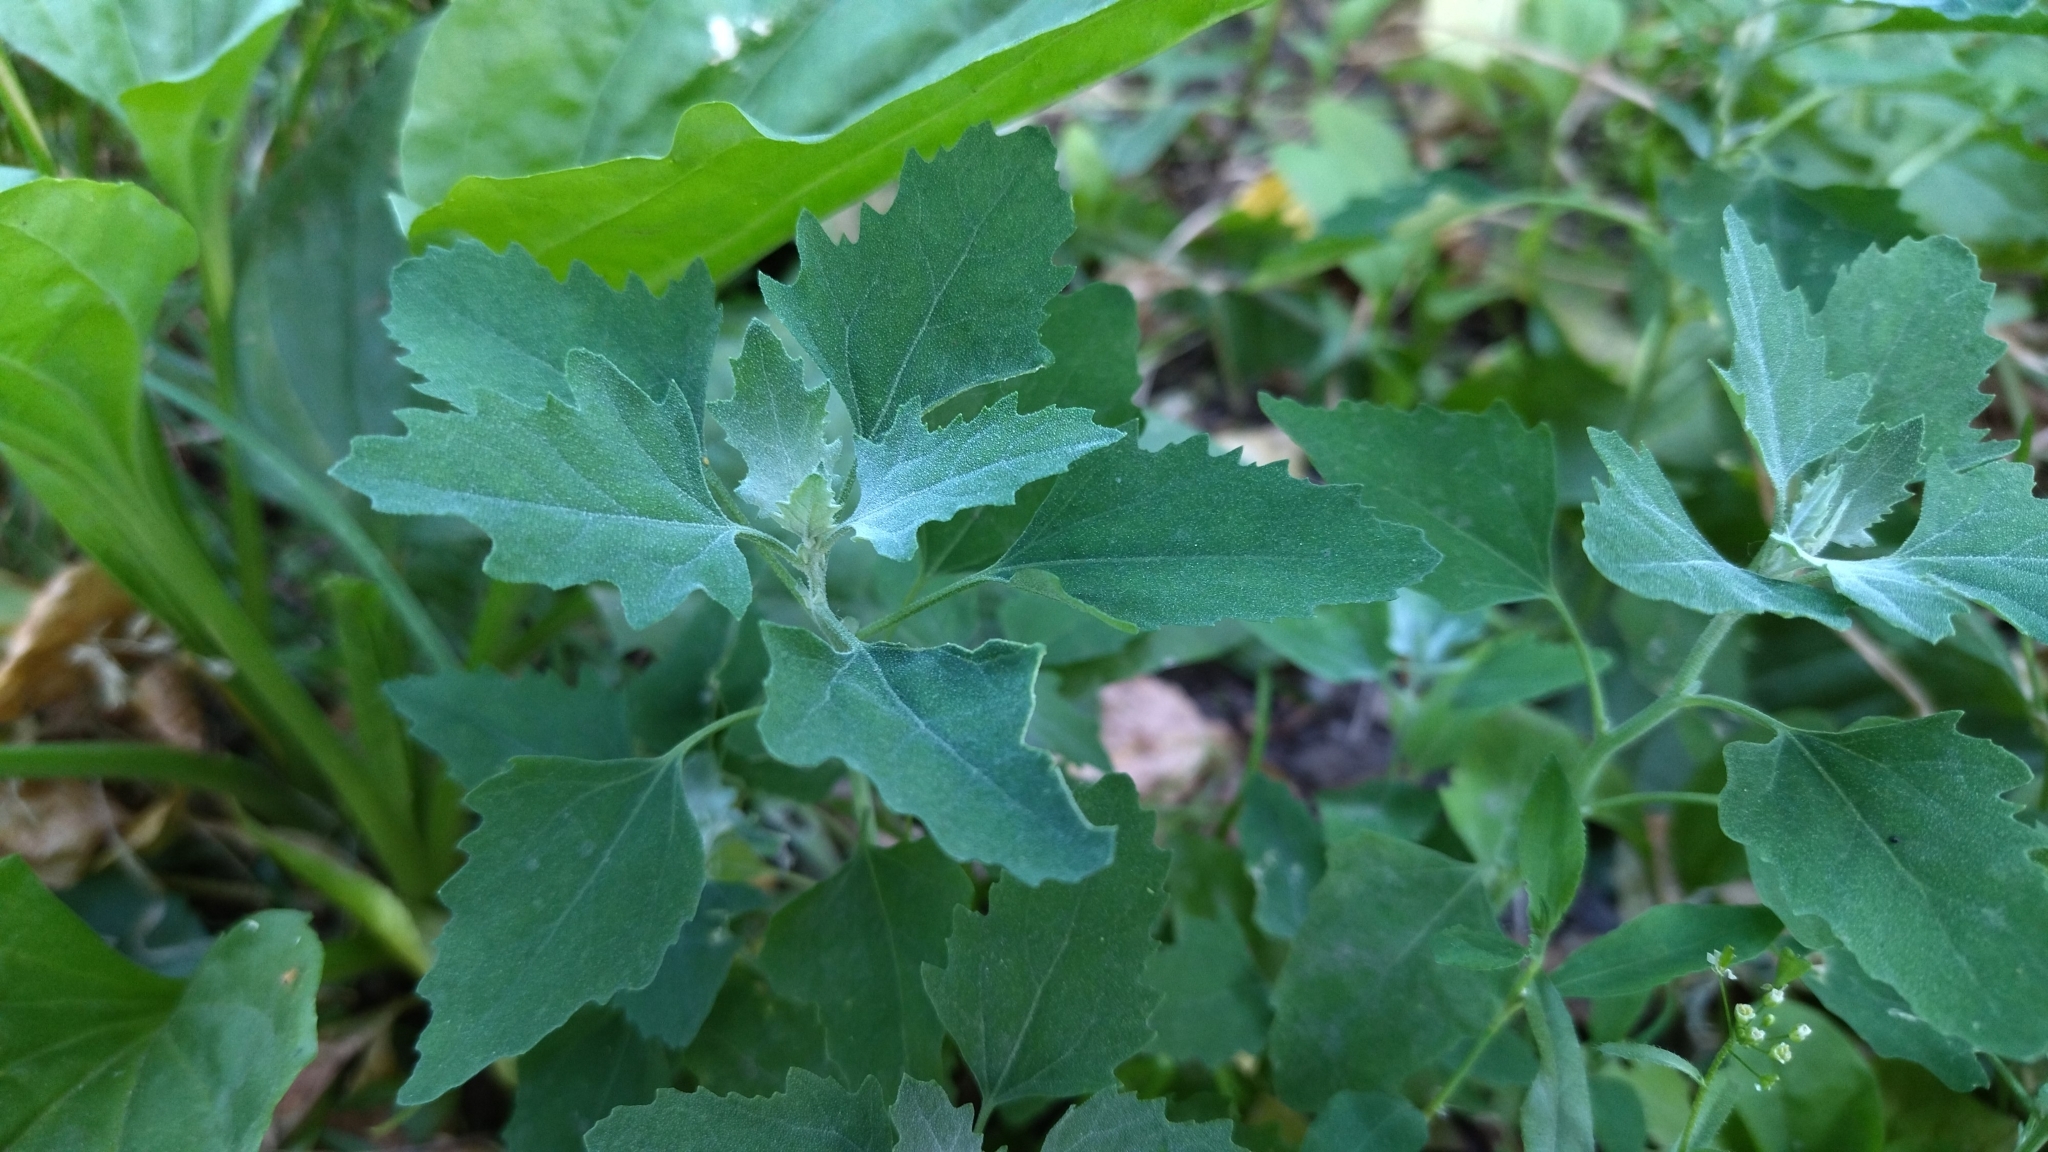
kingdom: Plantae
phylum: Tracheophyta
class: Magnoliopsida
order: Caryophyllales
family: Amaranthaceae
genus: Chenopodium
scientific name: Chenopodium album
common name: Fat-hen
